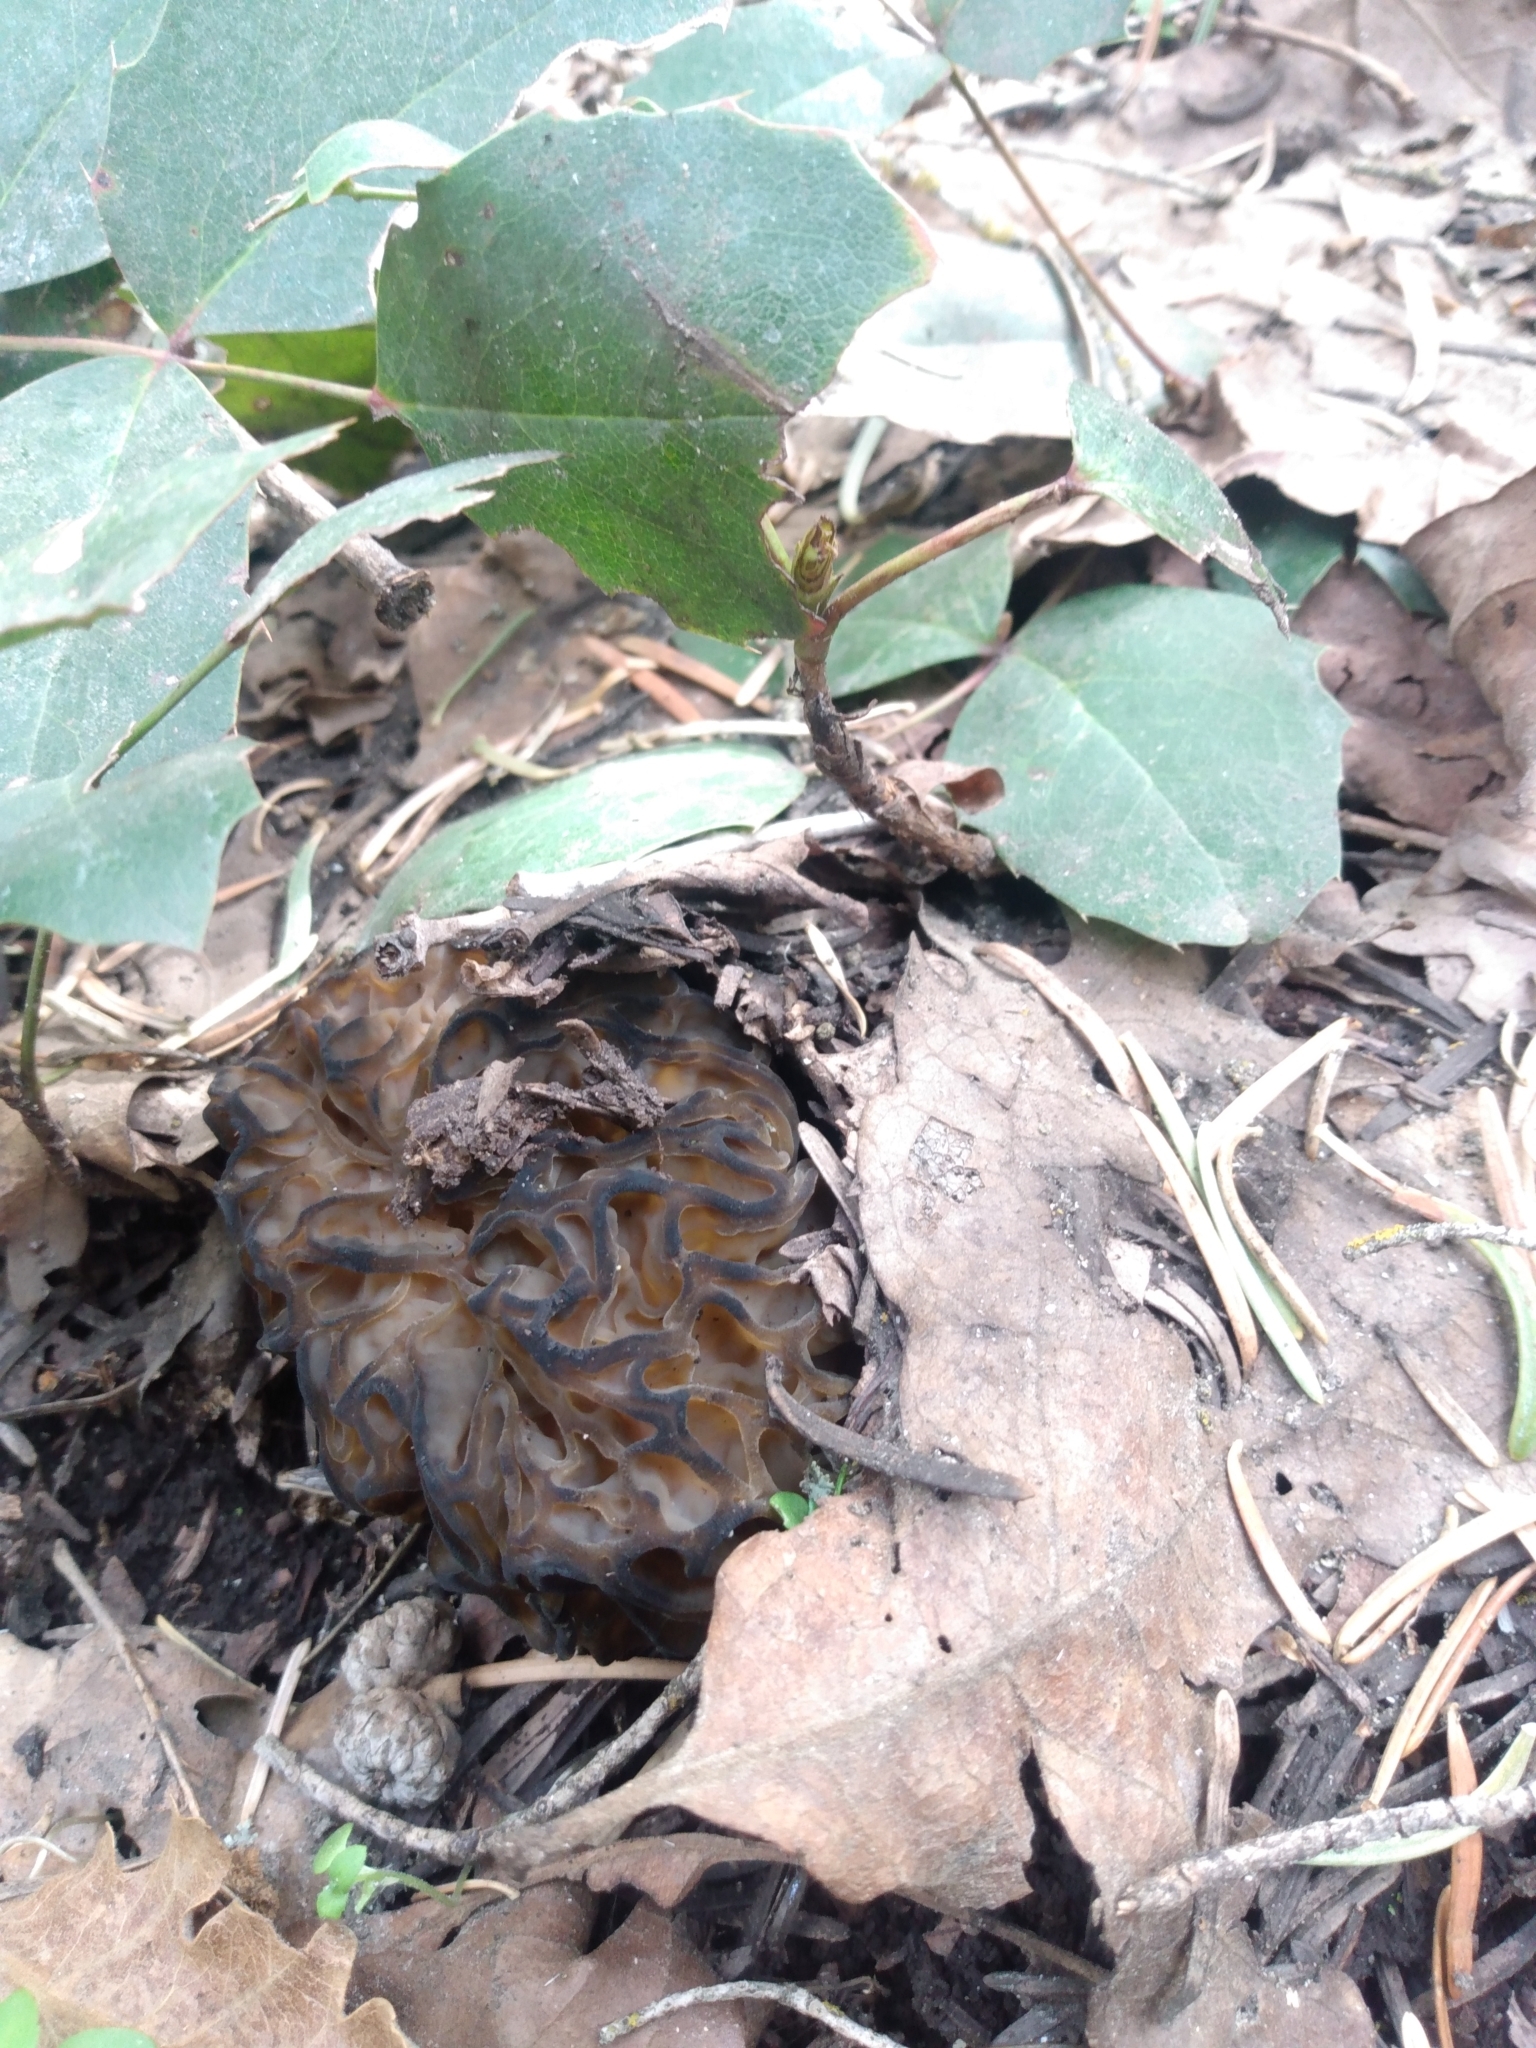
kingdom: Fungi
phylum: Ascomycota
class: Pezizomycetes
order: Pezizales
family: Morchellaceae
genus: Morchella
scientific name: Morchella snyderi
